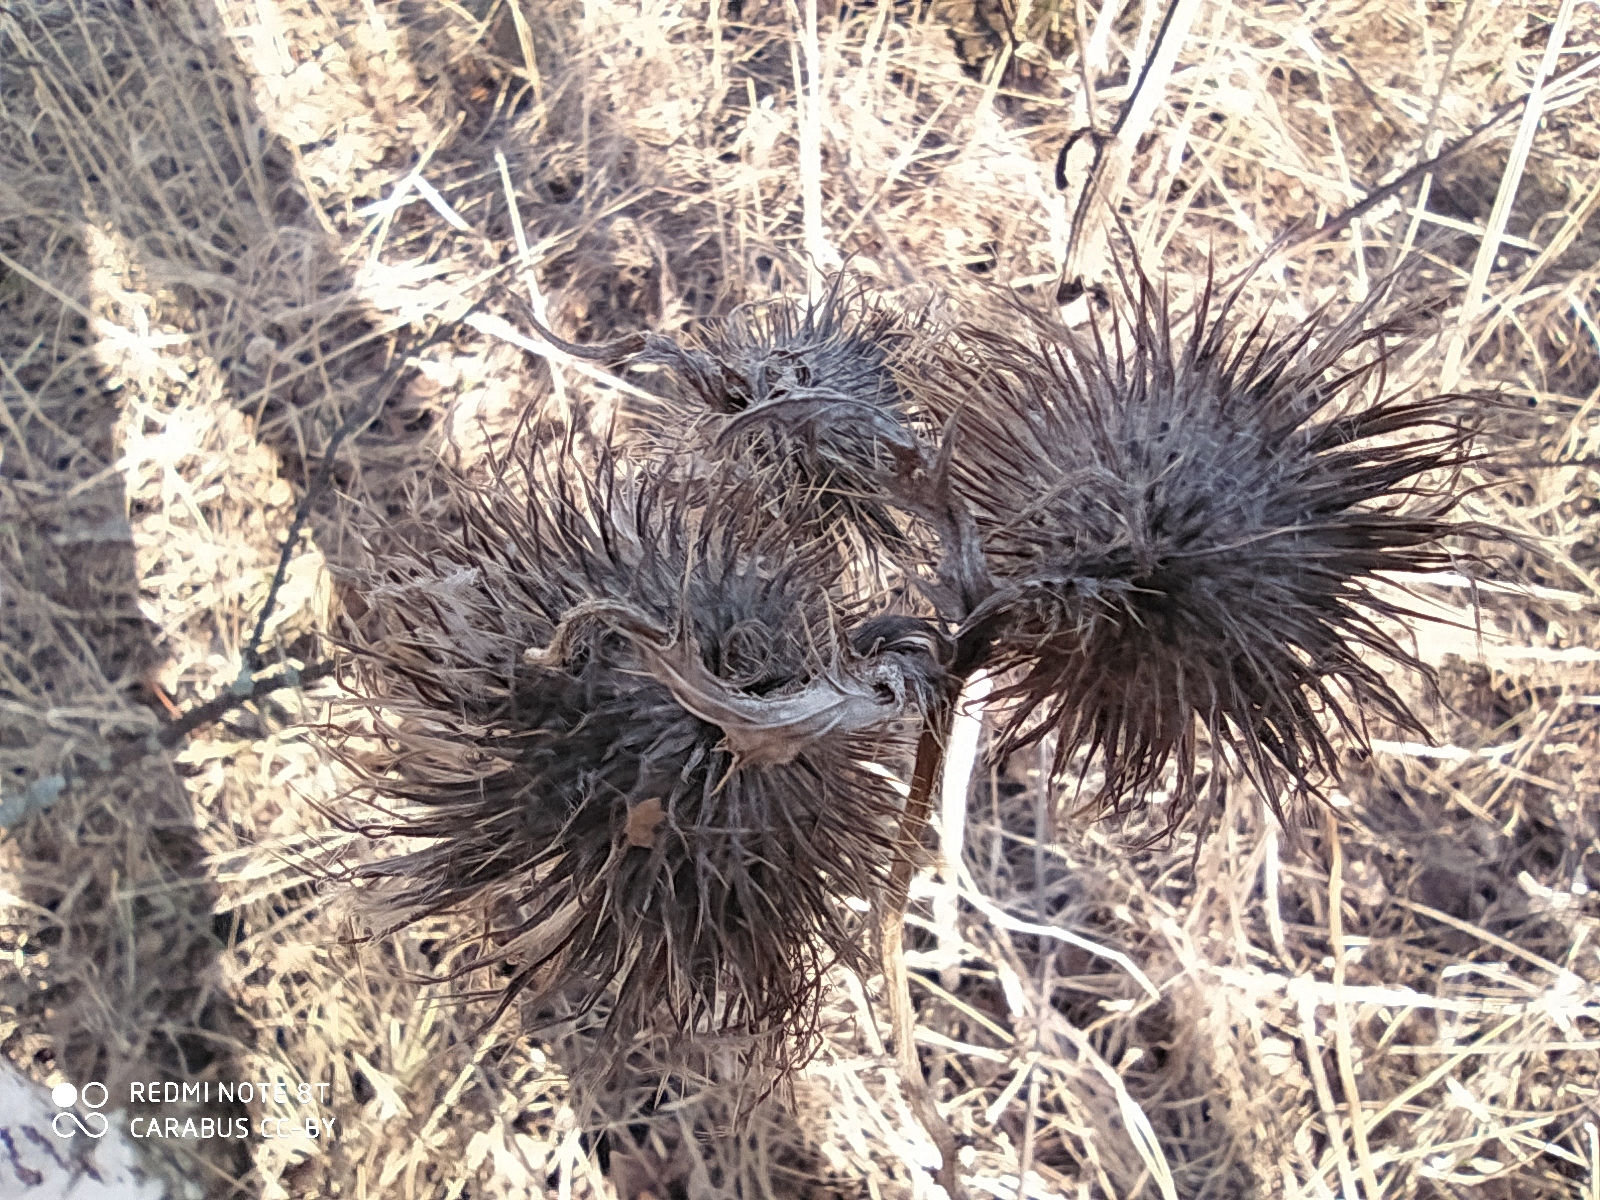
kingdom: Plantae
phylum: Tracheophyta
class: Magnoliopsida
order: Asterales
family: Asteraceae
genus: Cirsium
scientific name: Cirsium vulgare
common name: Bull thistle
